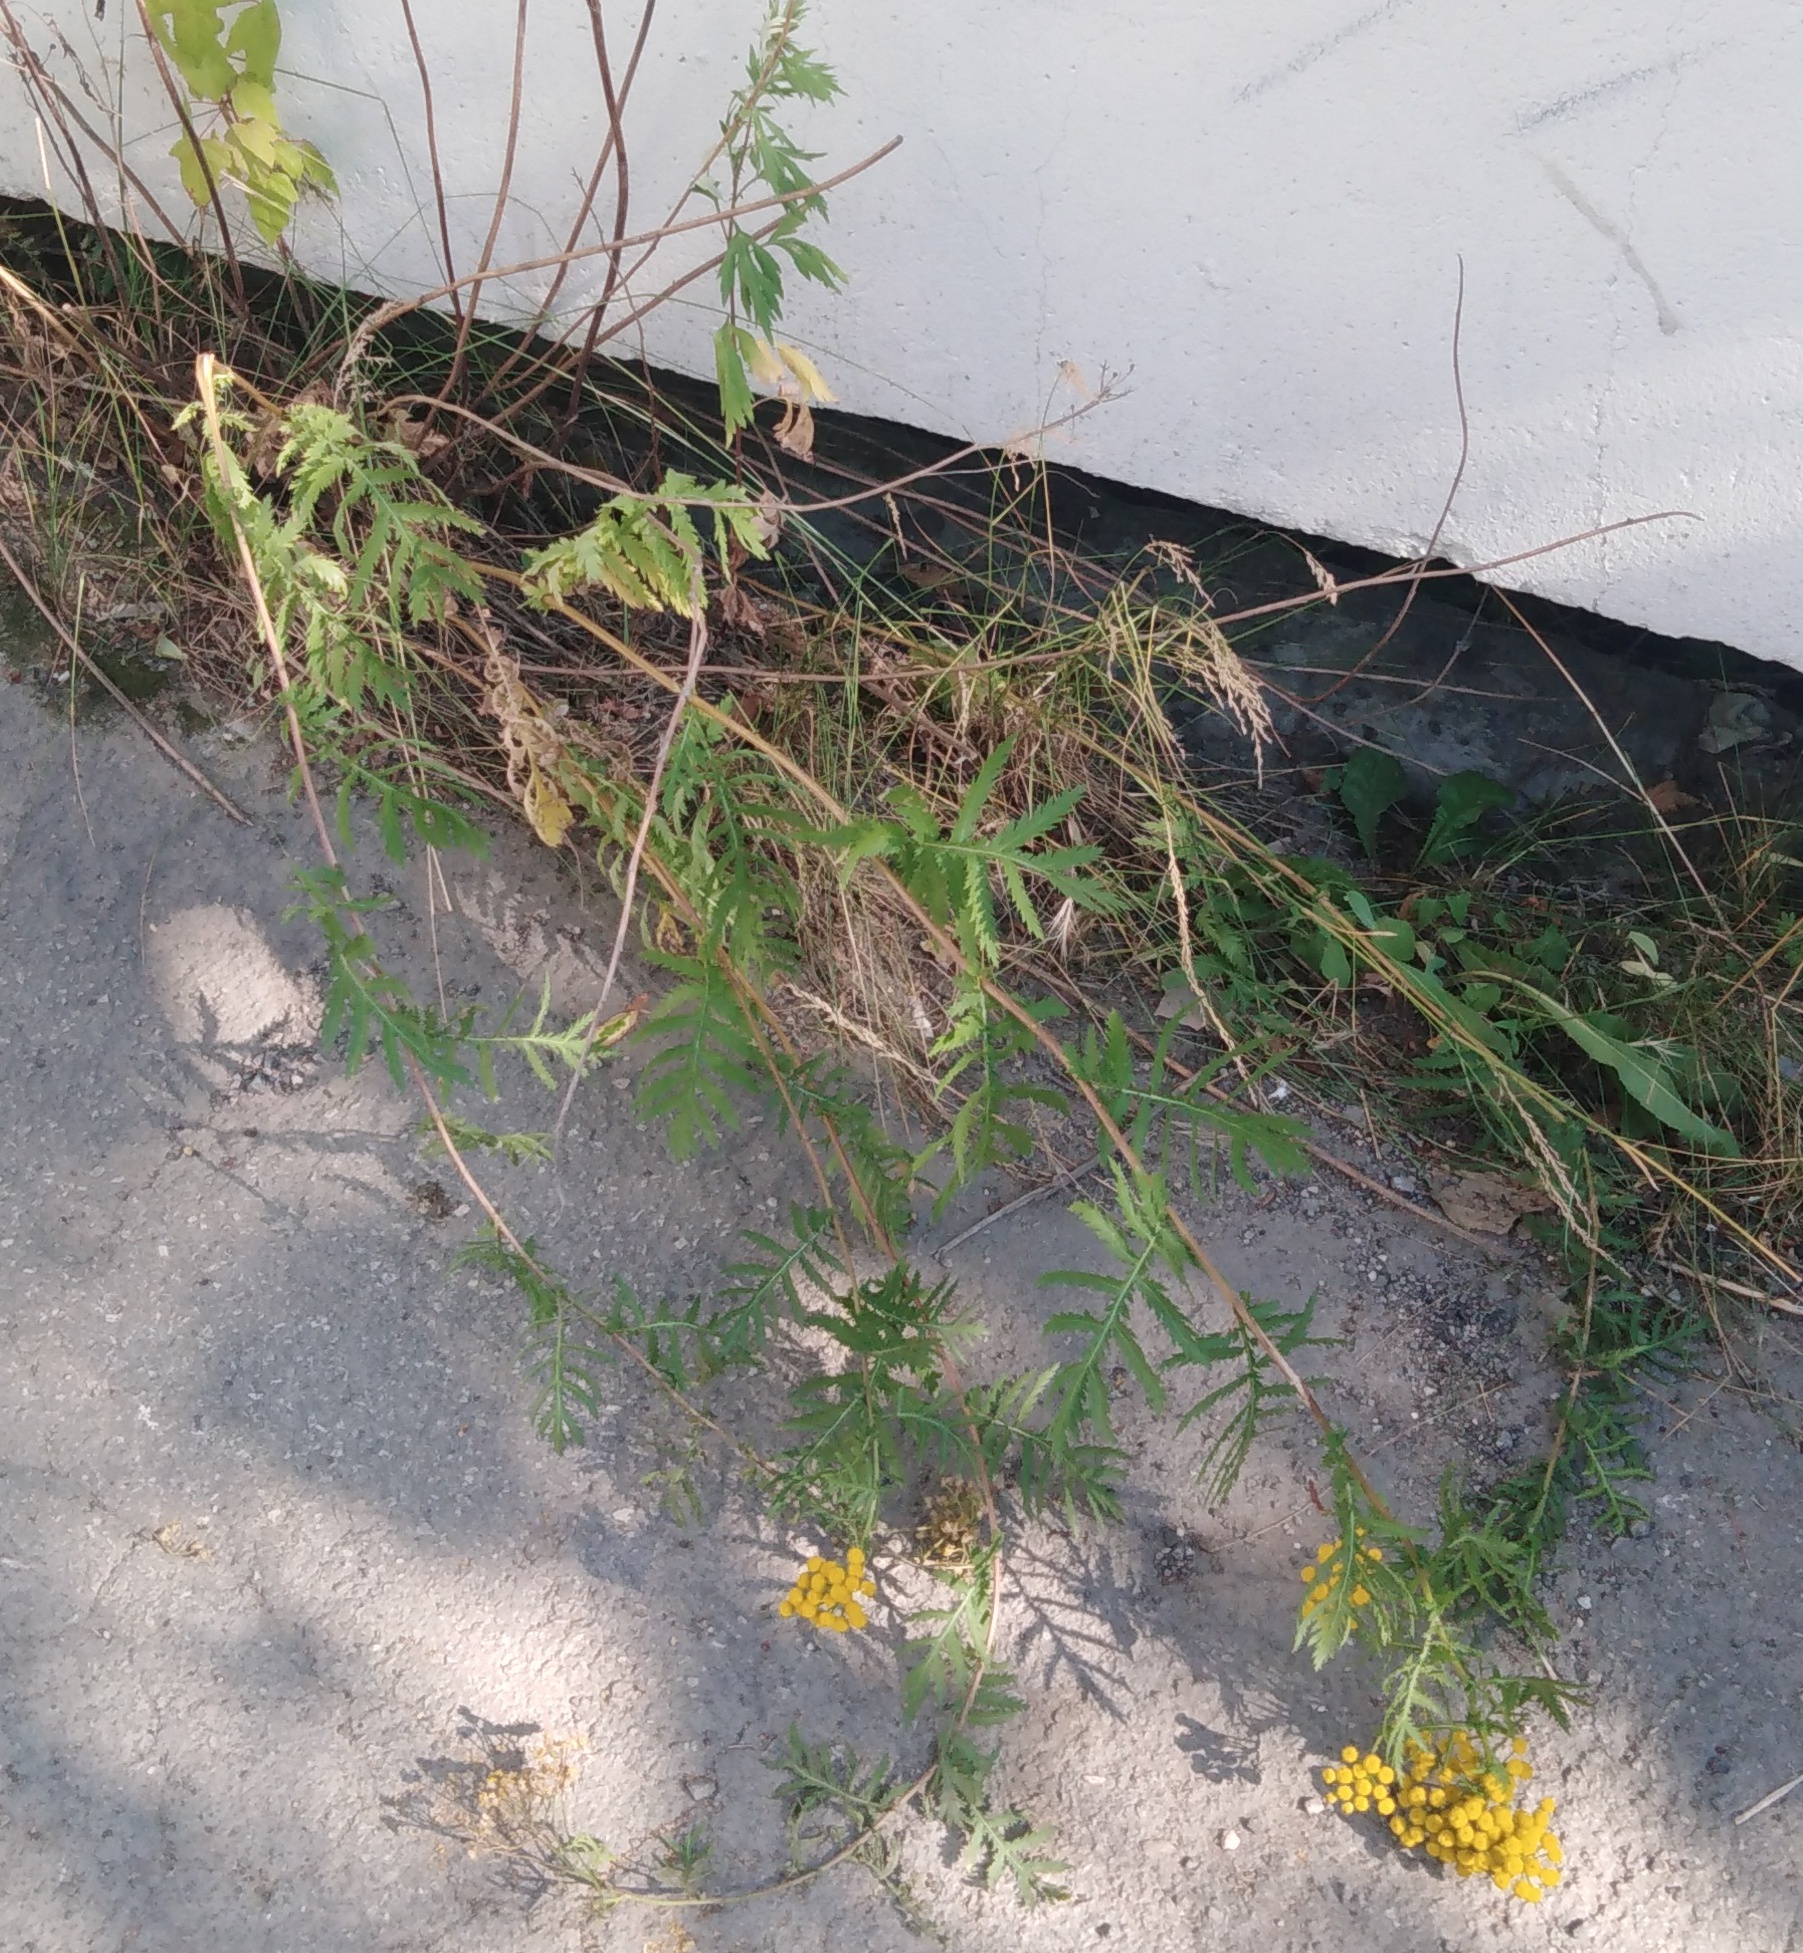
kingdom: Plantae
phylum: Tracheophyta
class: Magnoliopsida
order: Asterales
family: Asteraceae
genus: Tanacetum
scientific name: Tanacetum vulgare
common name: Common tansy
